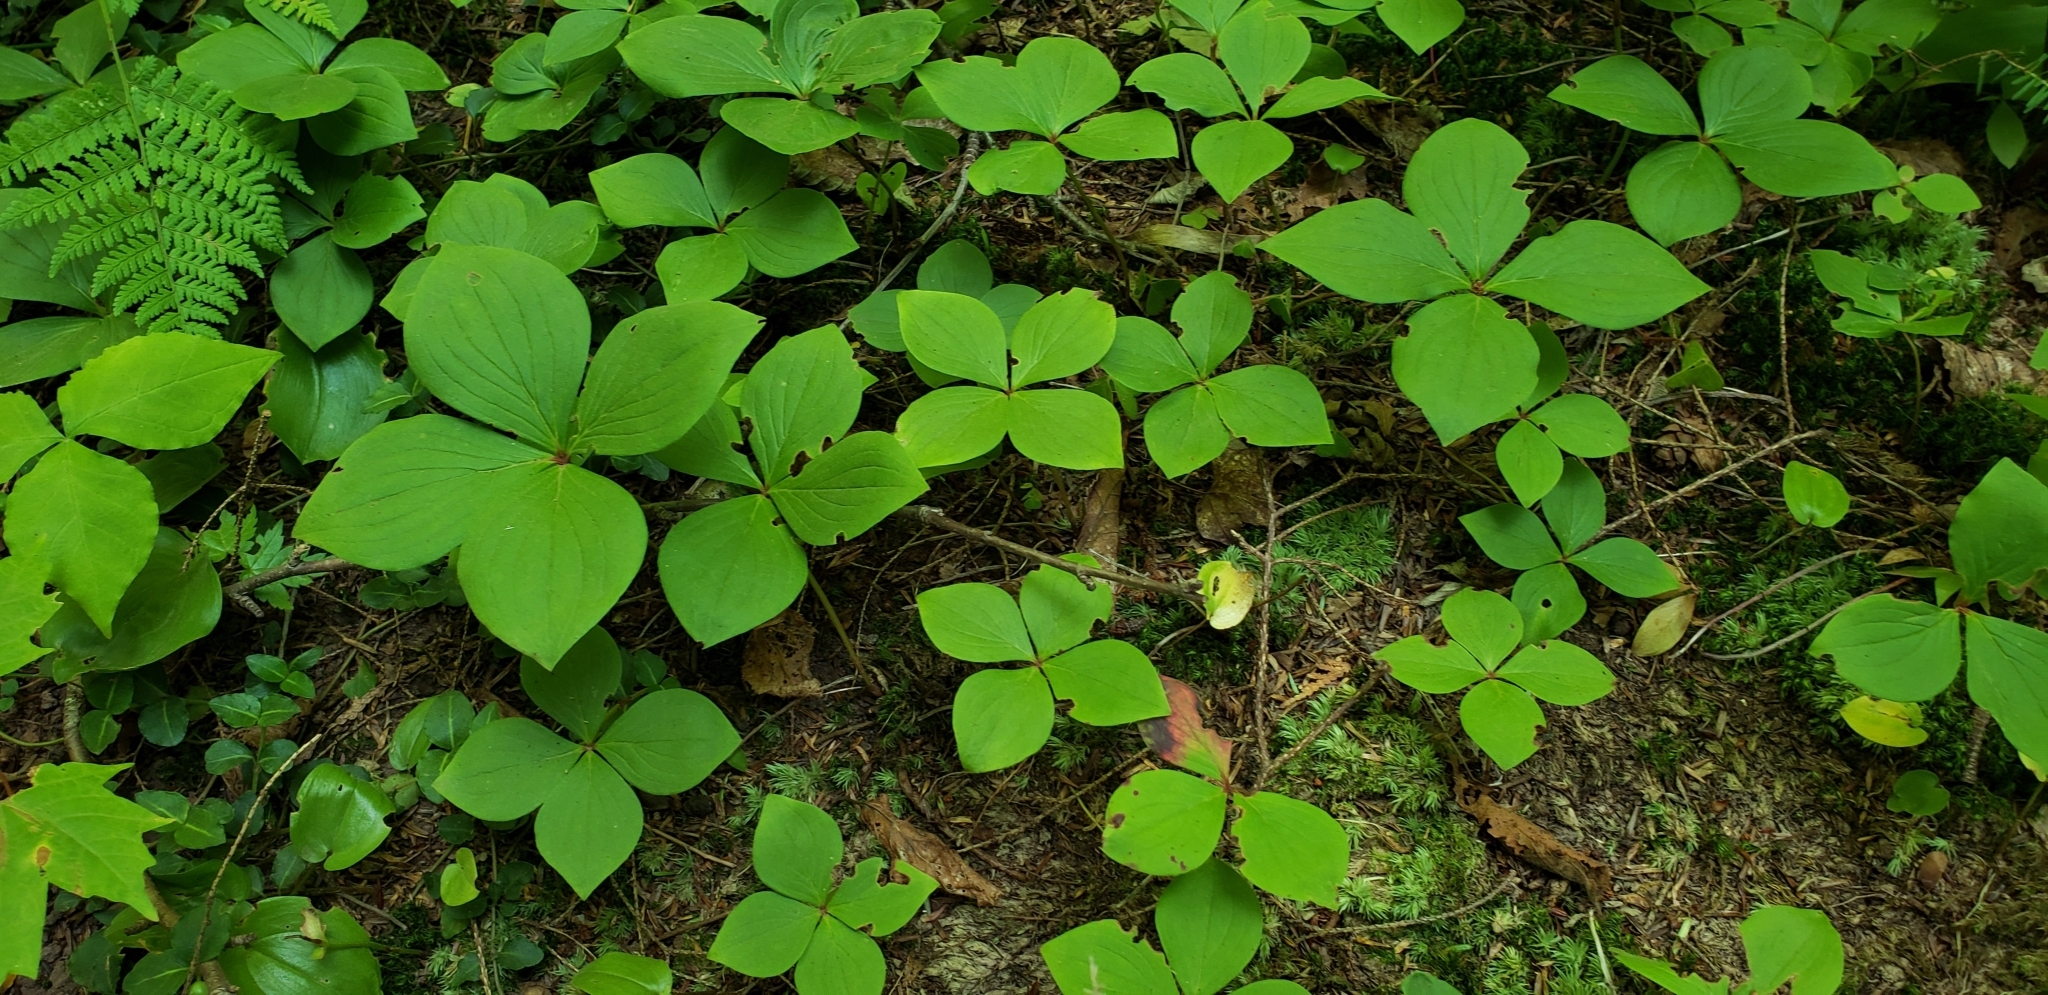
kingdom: Plantae
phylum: Tracheophyta
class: Magnoliopsida
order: Cornales
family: Cornaceae
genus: Cornus
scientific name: Cornus canadensis
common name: Creeping dogwood
